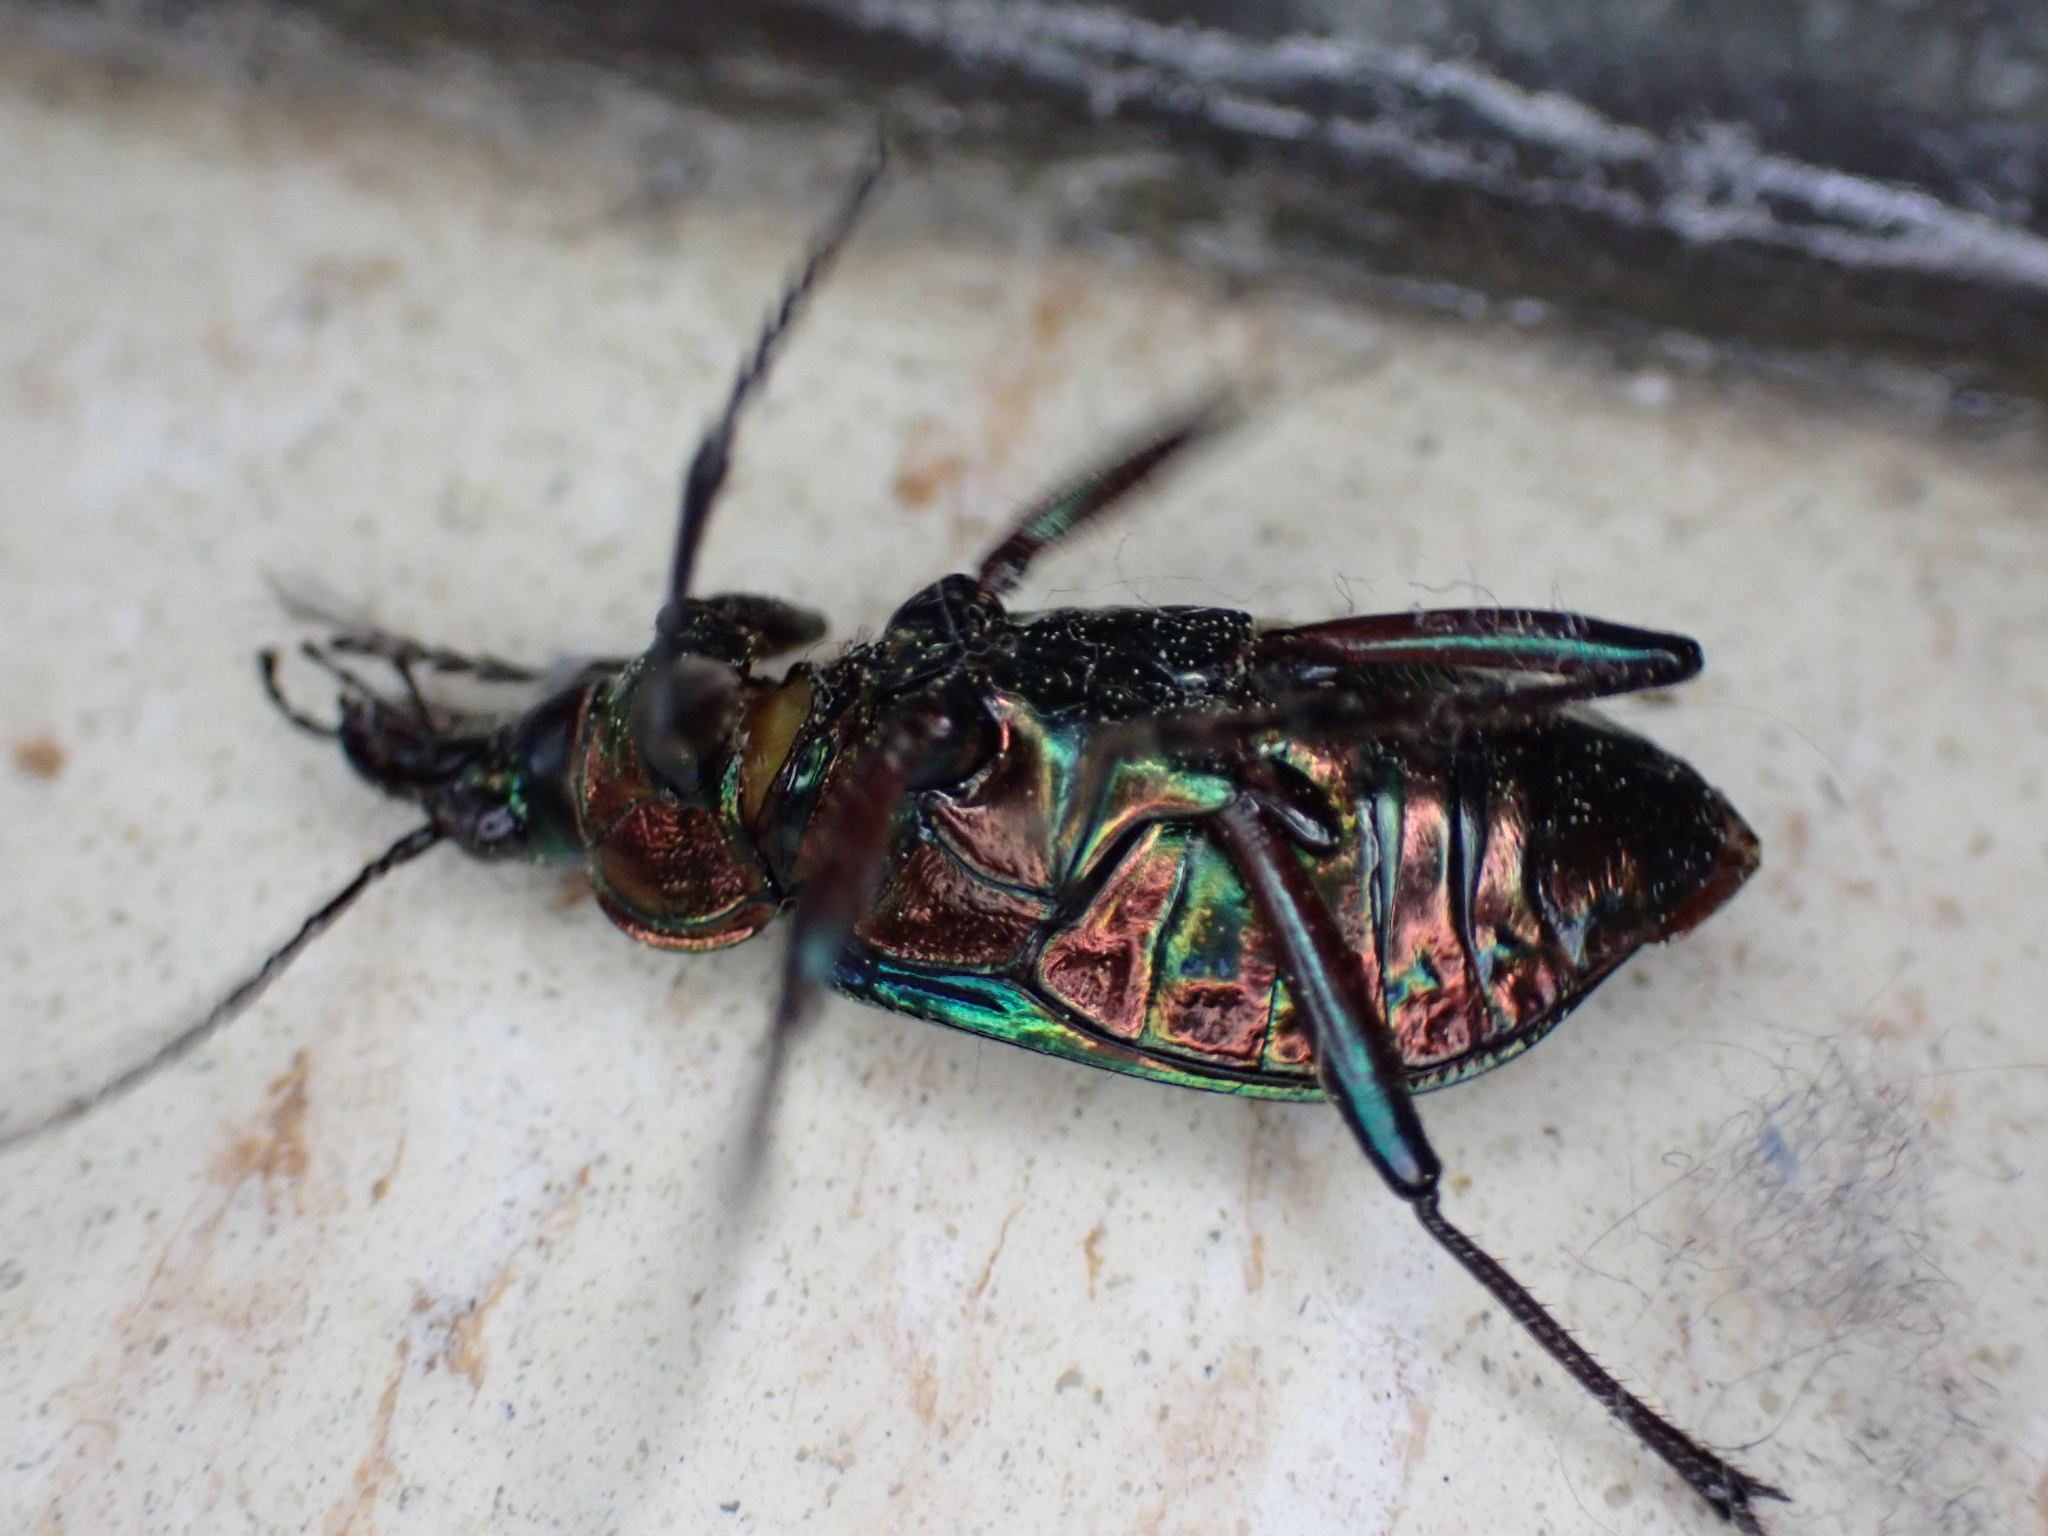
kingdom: Animalia
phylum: Arthropoda
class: Insecta
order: Coleoptera
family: Carabidae
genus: Calosoma
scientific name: Calosoma scrutator
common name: Fiery searcher beetle
